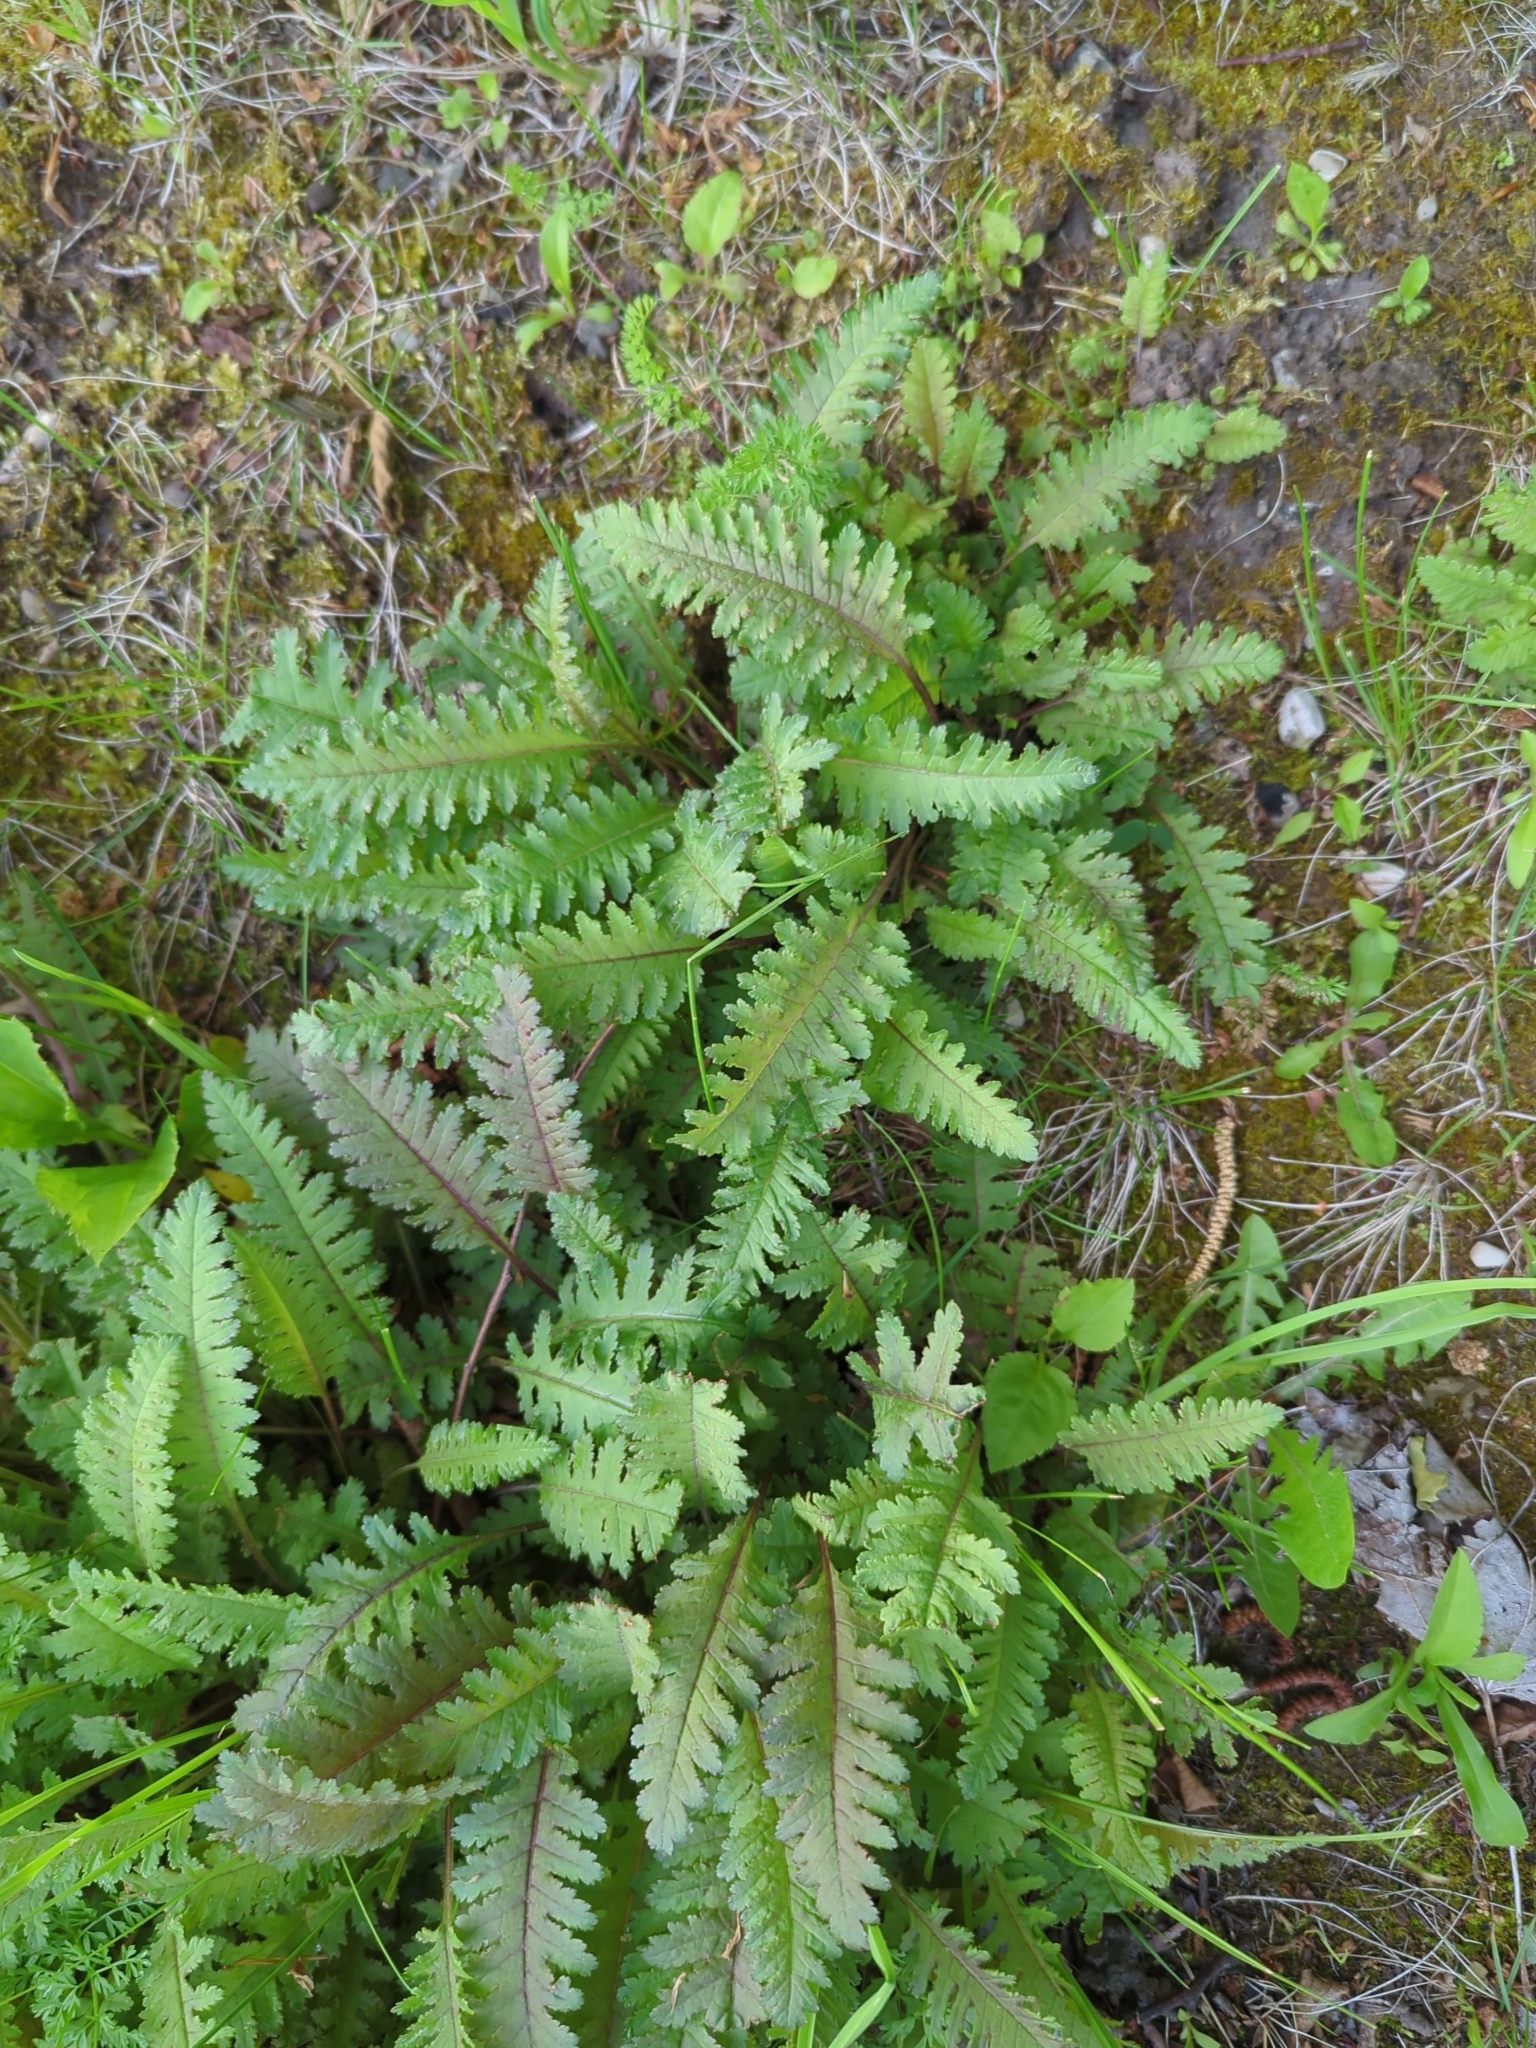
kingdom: Plantae
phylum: Tracheophyta
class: Magnoliopsida
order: Lamiales
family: Orobanchaceae
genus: Pedicularis
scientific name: Pedicularis canadensis
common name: Early lousewort
